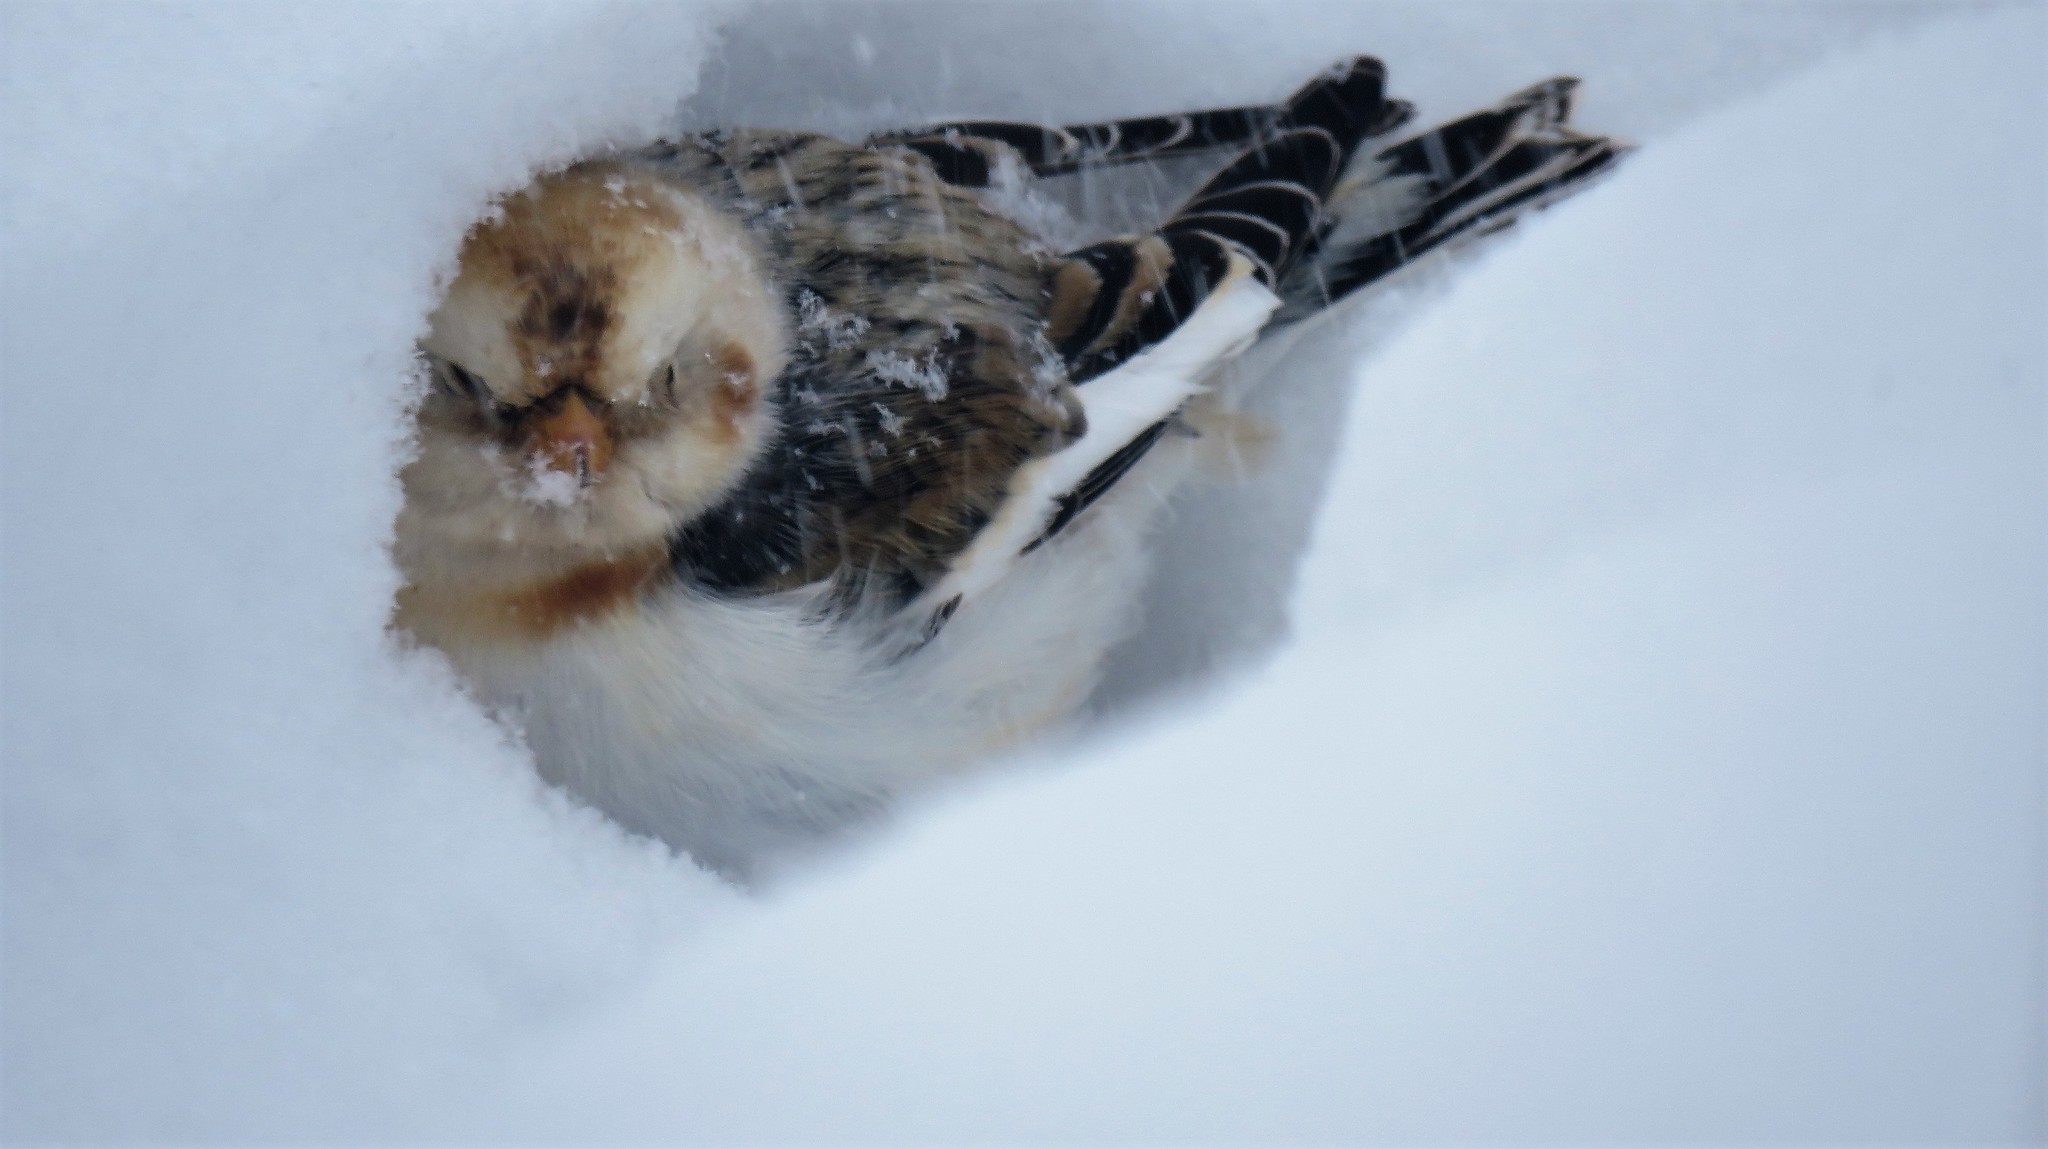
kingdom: Animalia
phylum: Chordata
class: Aves
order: Passeriformes
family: Calcariidae
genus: Plectrophenax
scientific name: Plectrophenax nivalis
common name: Snow bunting
